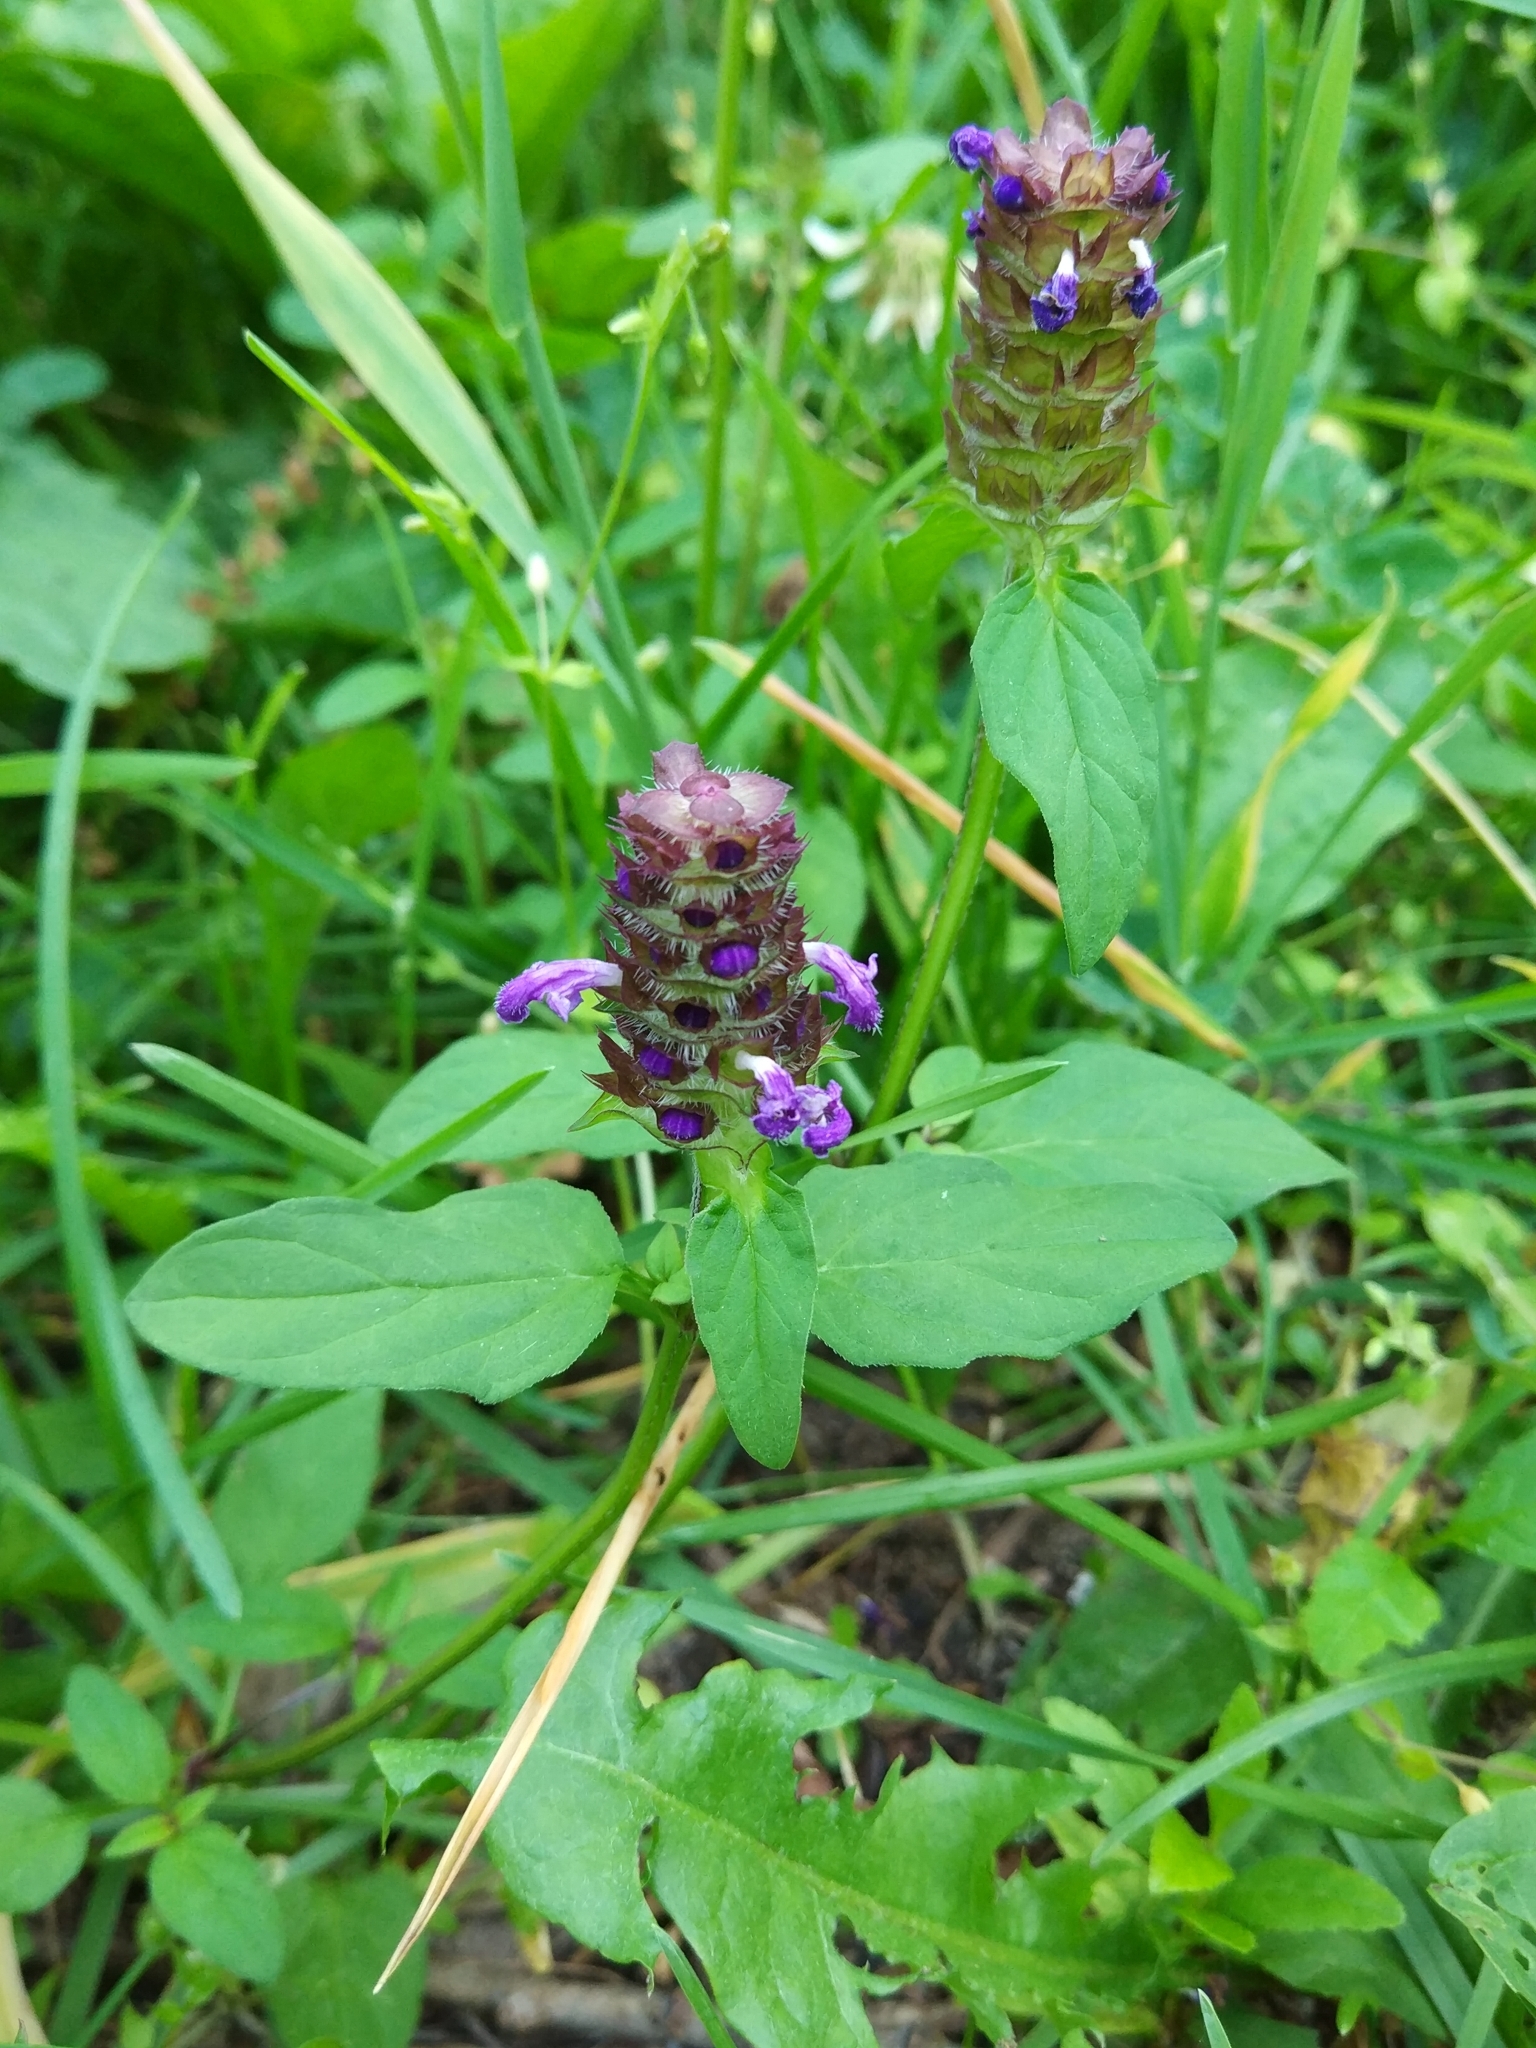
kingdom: Plantae
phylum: Tracheophyta
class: Magnoliopsida
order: Lamiales
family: Lamiaceae
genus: Prunella
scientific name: Prunella vulgaris
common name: Heal-all
